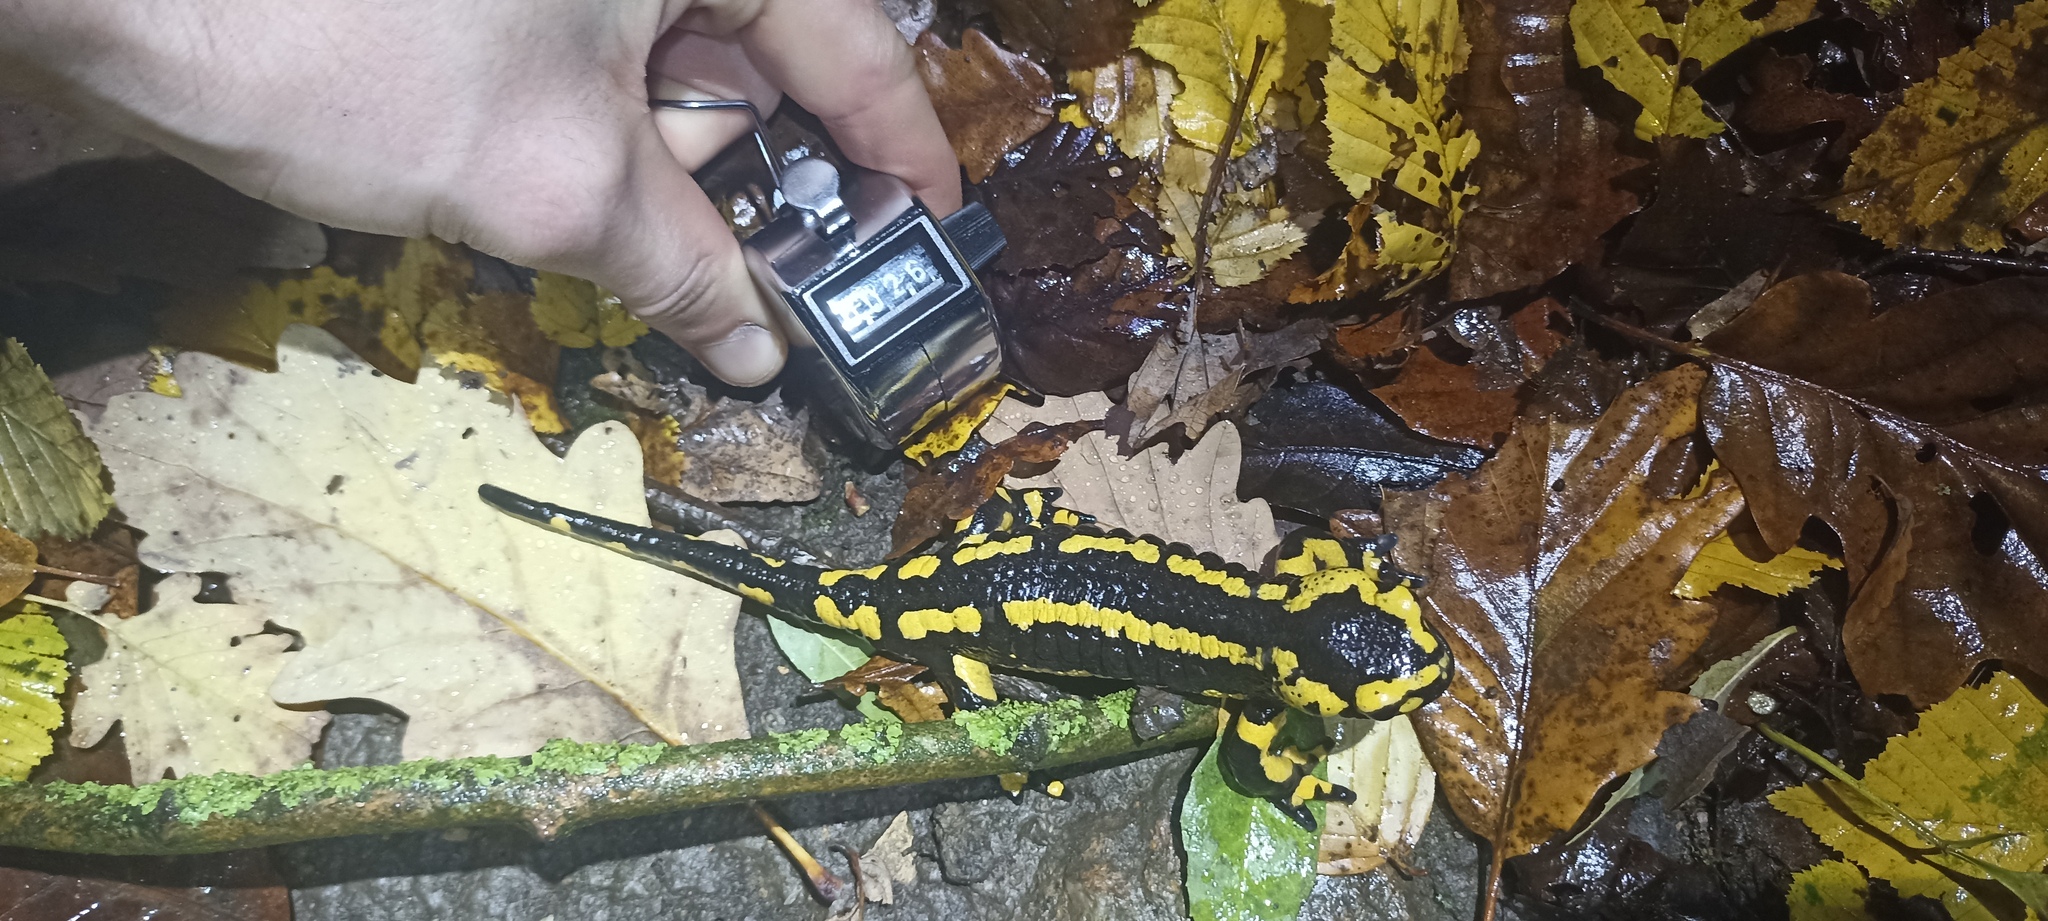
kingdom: Animalia
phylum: Chordata
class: Amphibia
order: Caudata
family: Salamandridae
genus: Salamandra
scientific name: Salamandra salamandra
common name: Fire salamander
